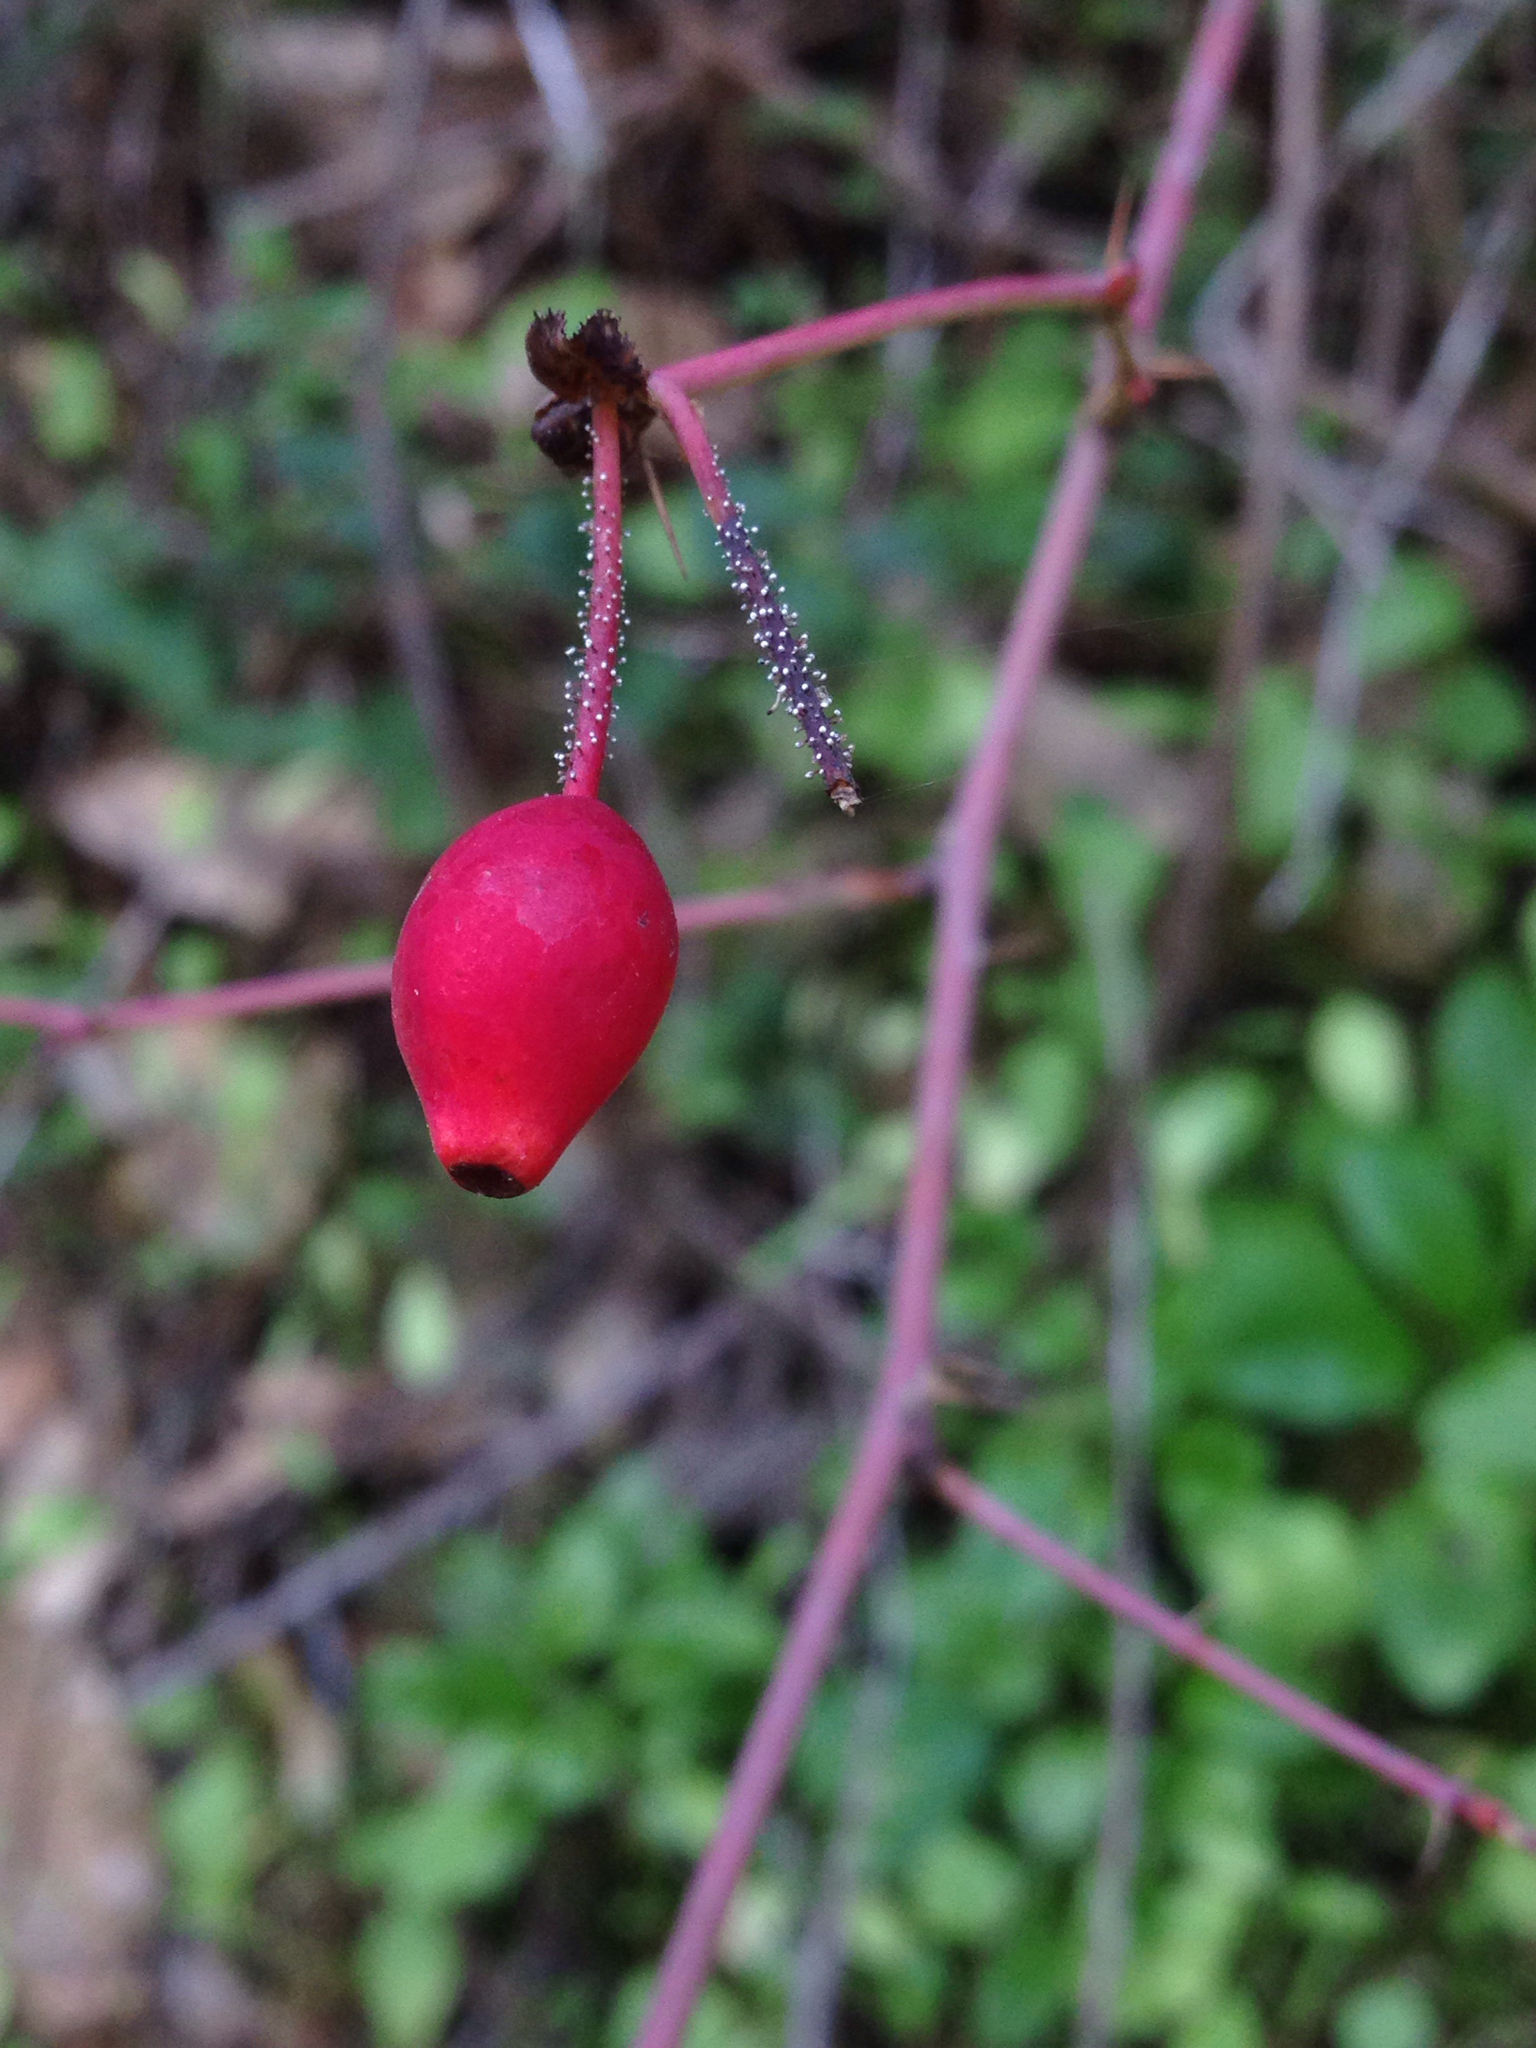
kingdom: Plantae
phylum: Tracheophyta
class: Magnoliopsida
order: Rosales
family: Rosaceae
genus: Rosa
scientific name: Rosa gymnocarpa
